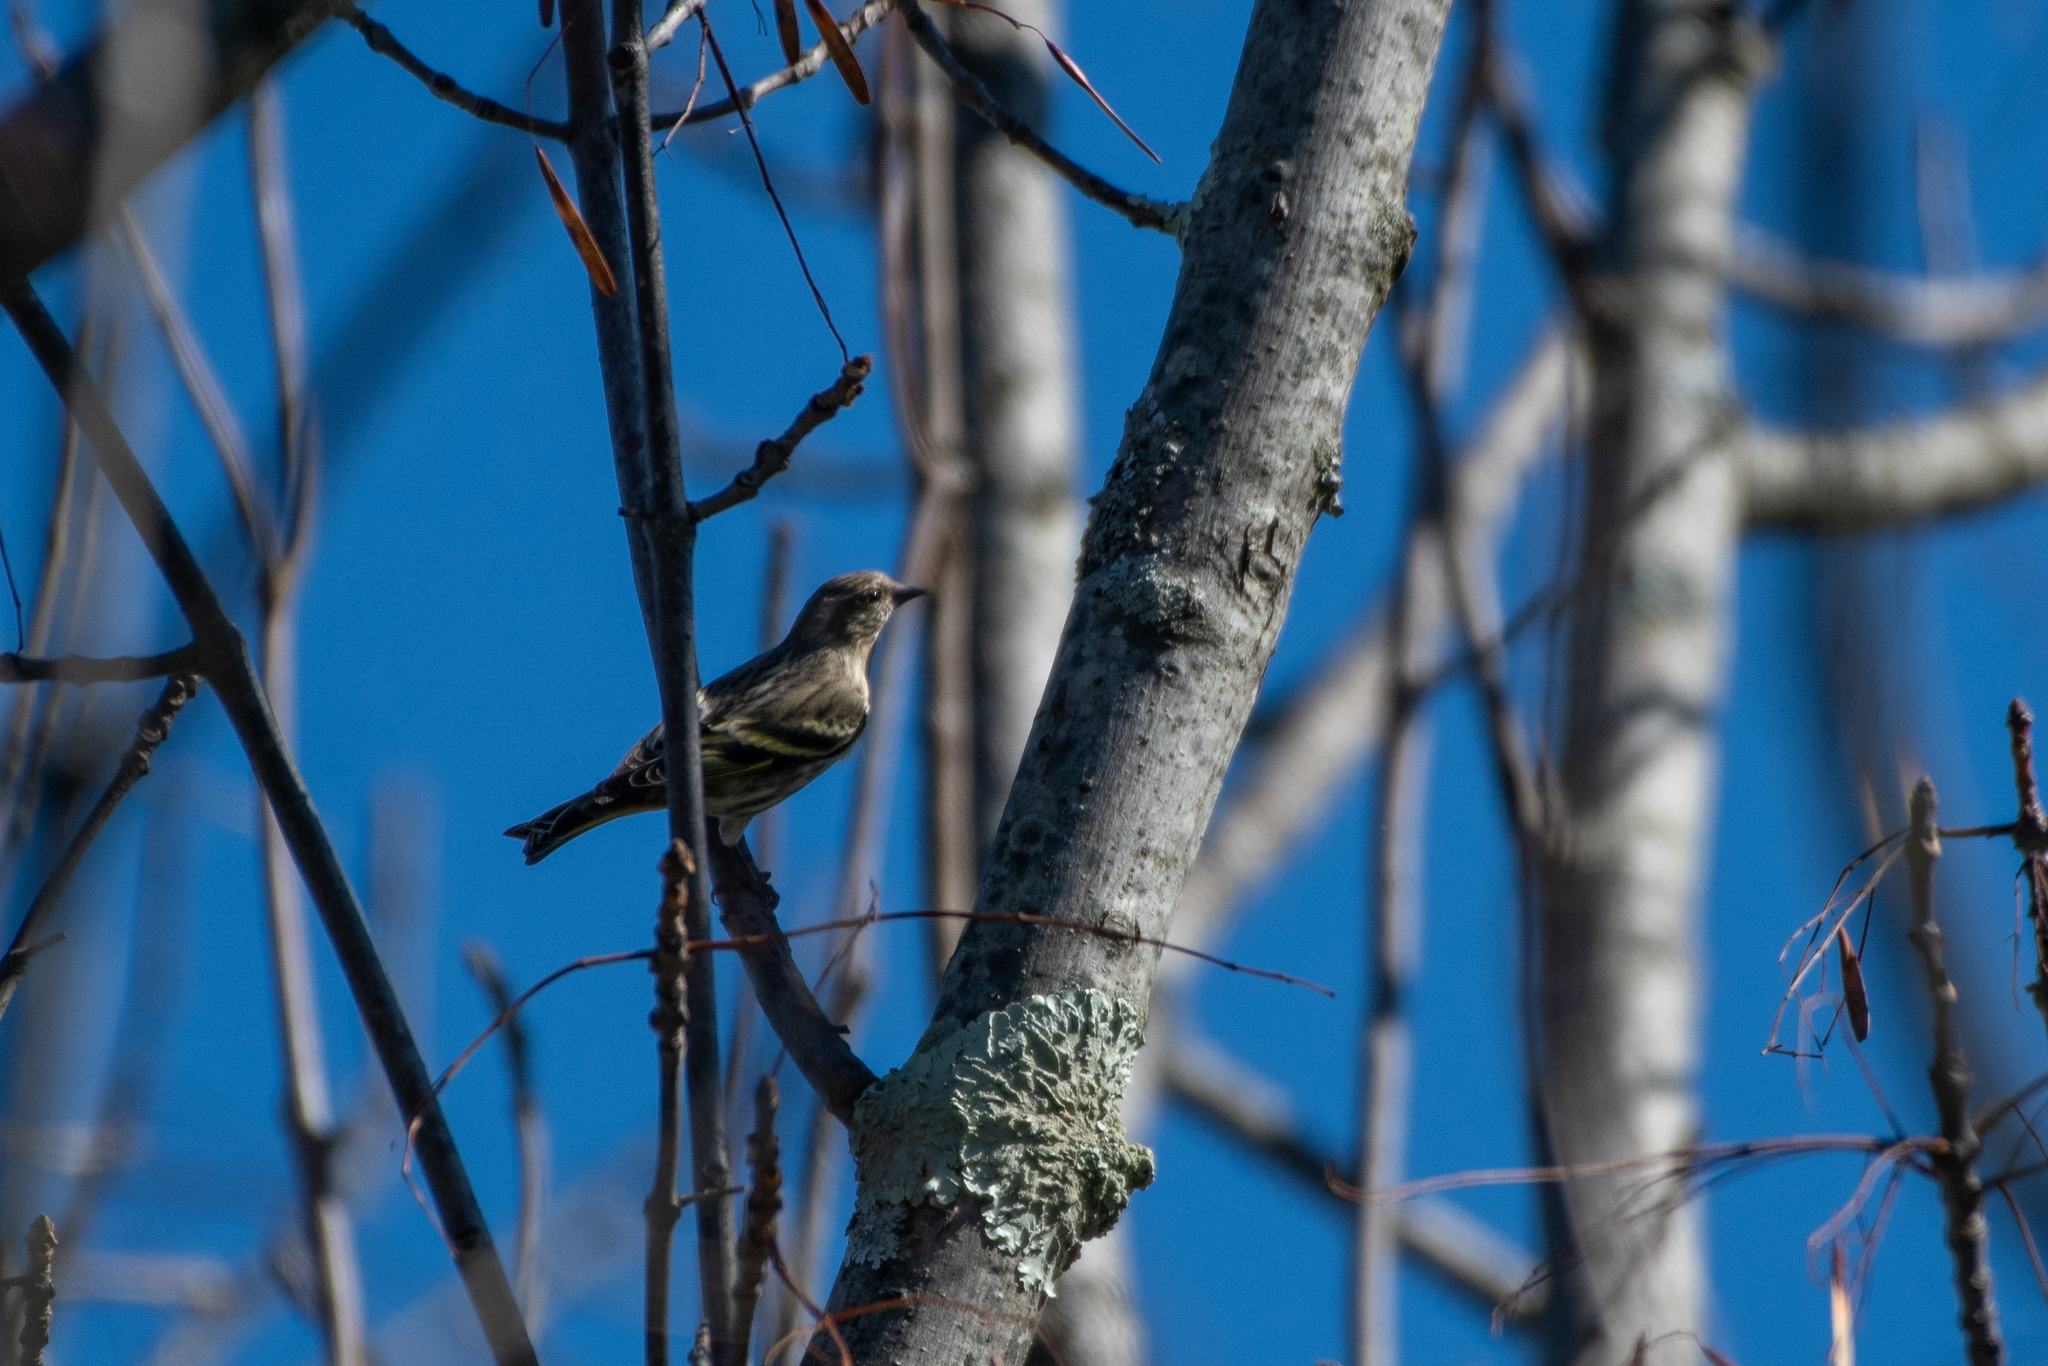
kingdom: Animalia
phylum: Chordata
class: Aves
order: Passeriformes
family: Fringillidae
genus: Spinus
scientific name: Spinus pinus
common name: Pine siskin
